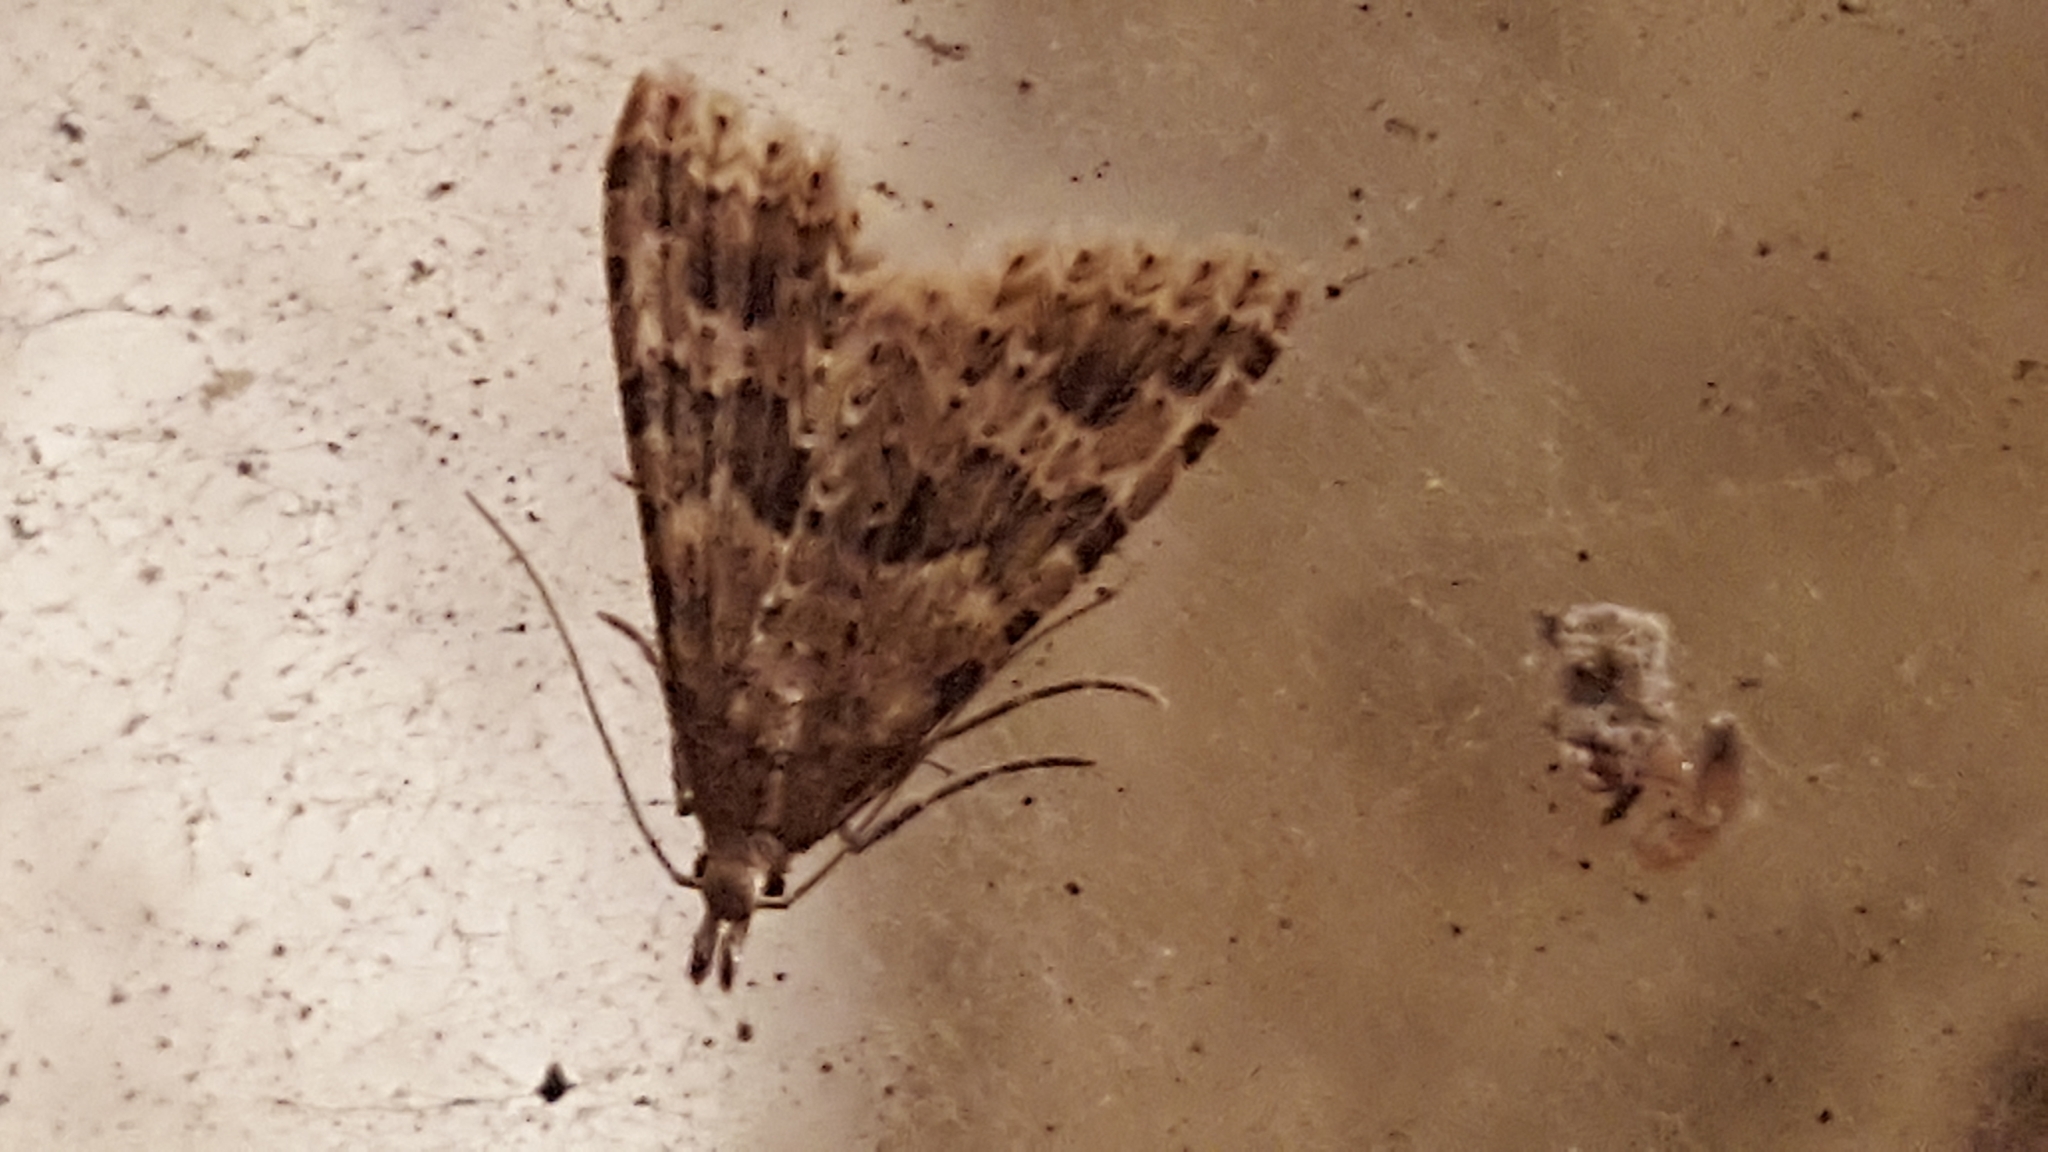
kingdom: Animalia
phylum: Arthropoda
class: Insecta
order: Lepidoptera
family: Alucitidae
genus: Alucita
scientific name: Alucita hexadactyla
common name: Twenty-plume moth
